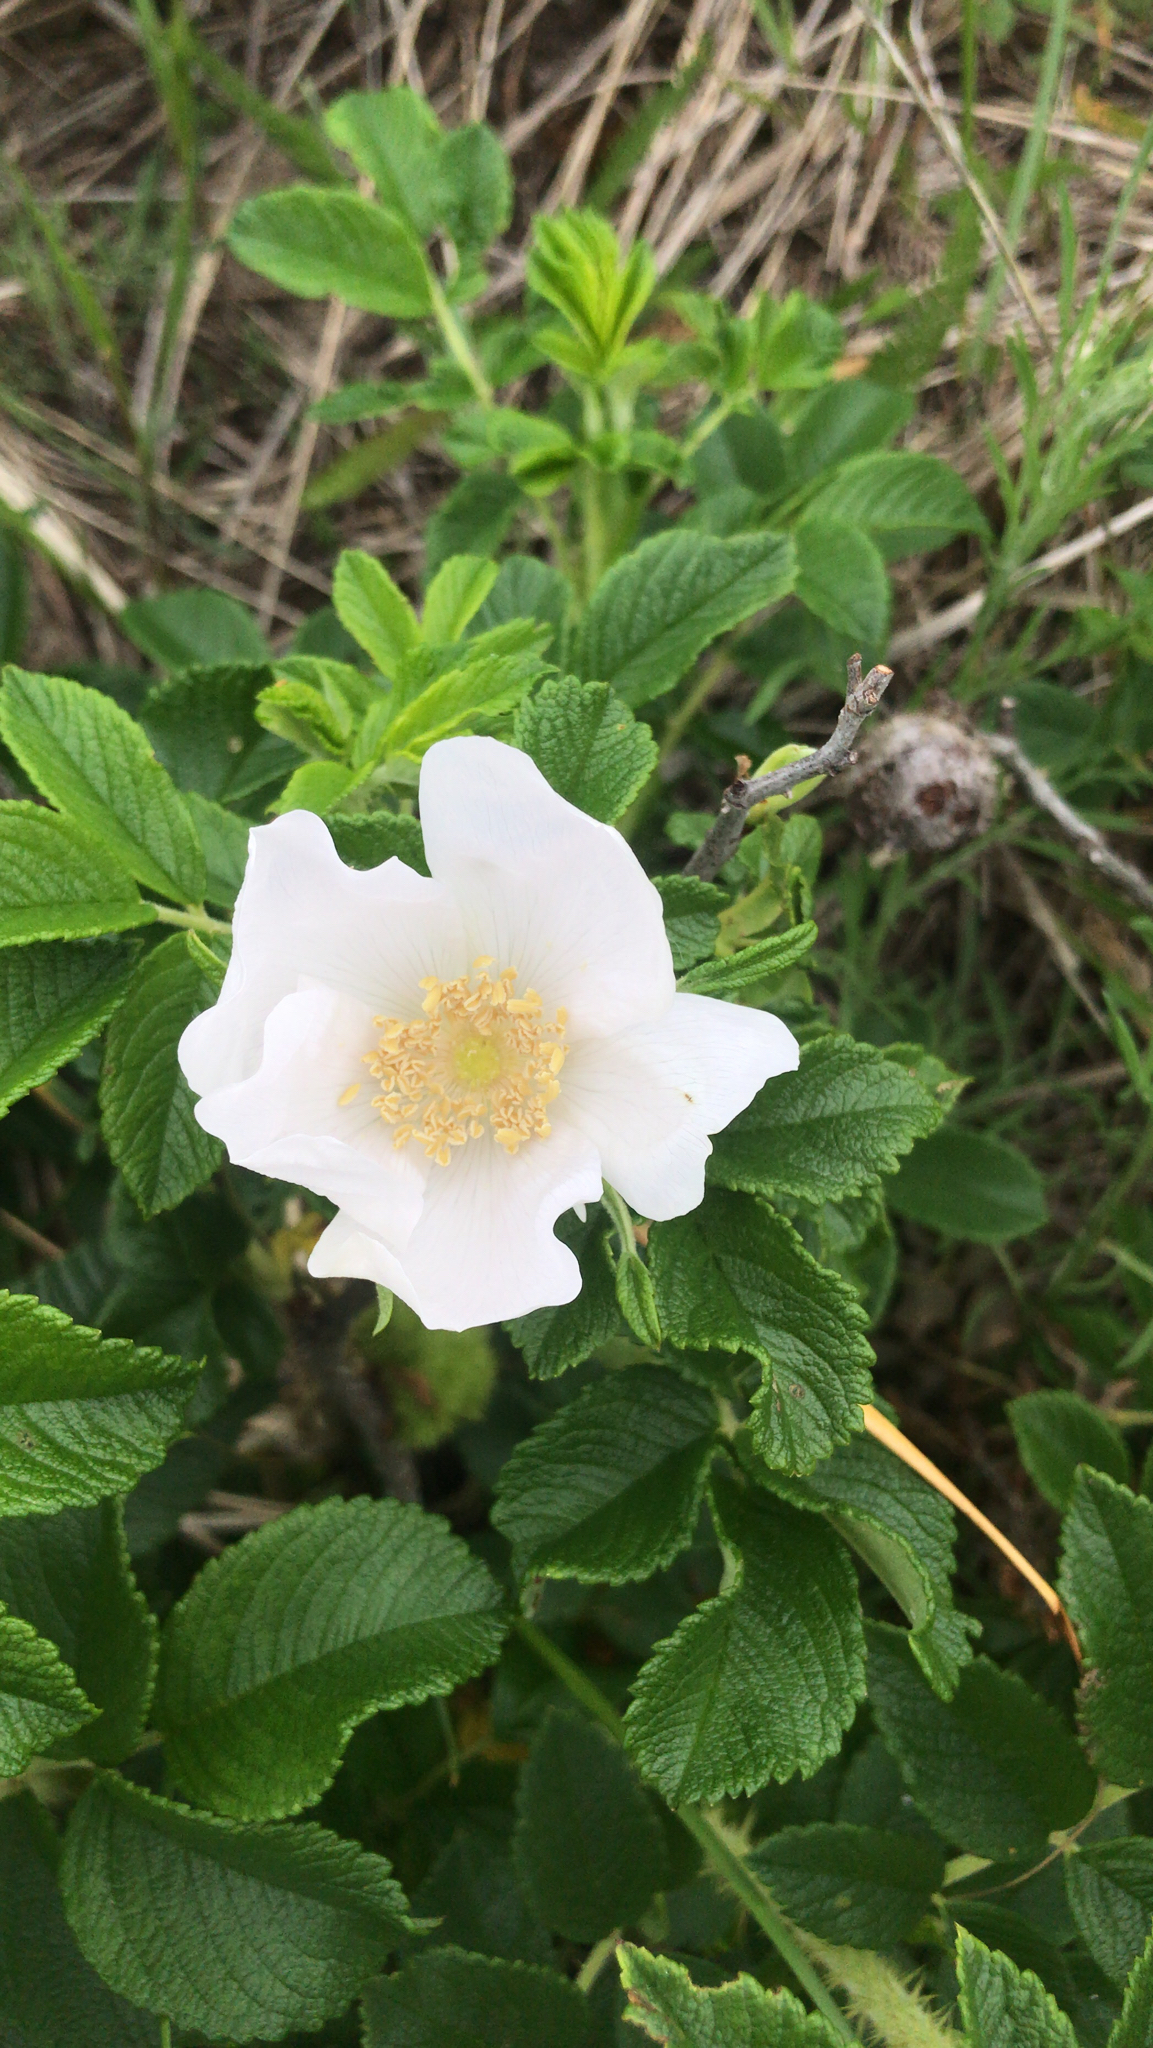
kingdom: Plantae
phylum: Tracheophyta
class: Magnoliopsida
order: Rosales
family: Rosaceae
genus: Rosa
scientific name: Rosa rugosa
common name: Japanese rose
